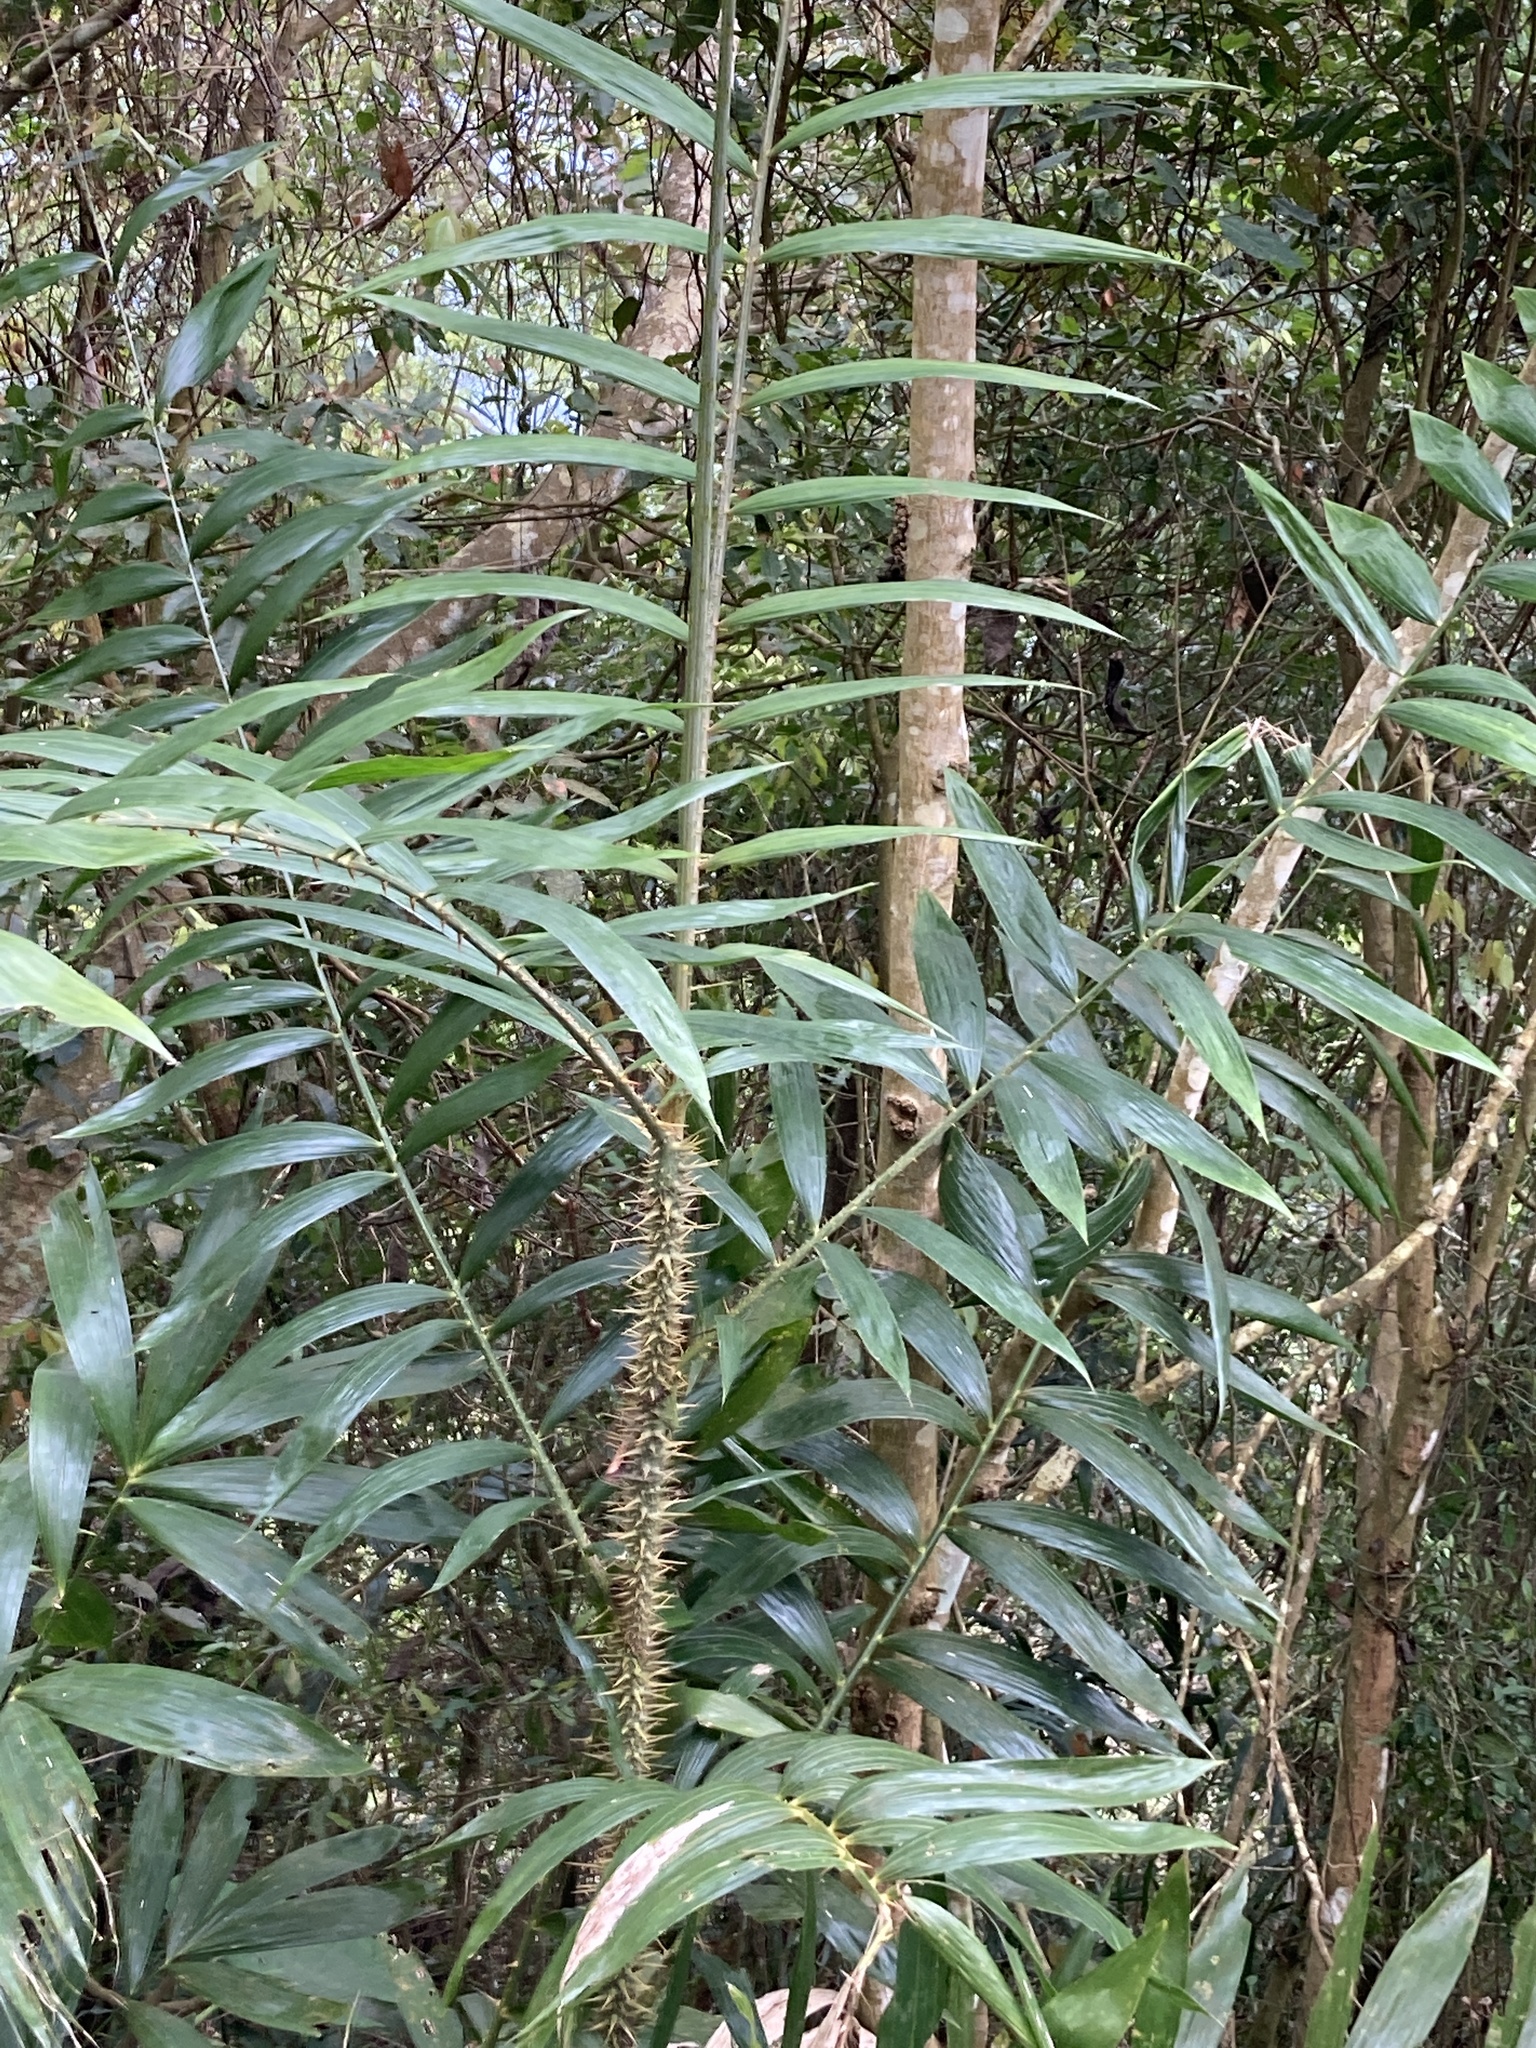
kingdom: Plantae
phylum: Tracheophyta
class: Liliopsida
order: Arecales
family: Arecaceae
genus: Calamus
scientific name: Calamus formosanus
